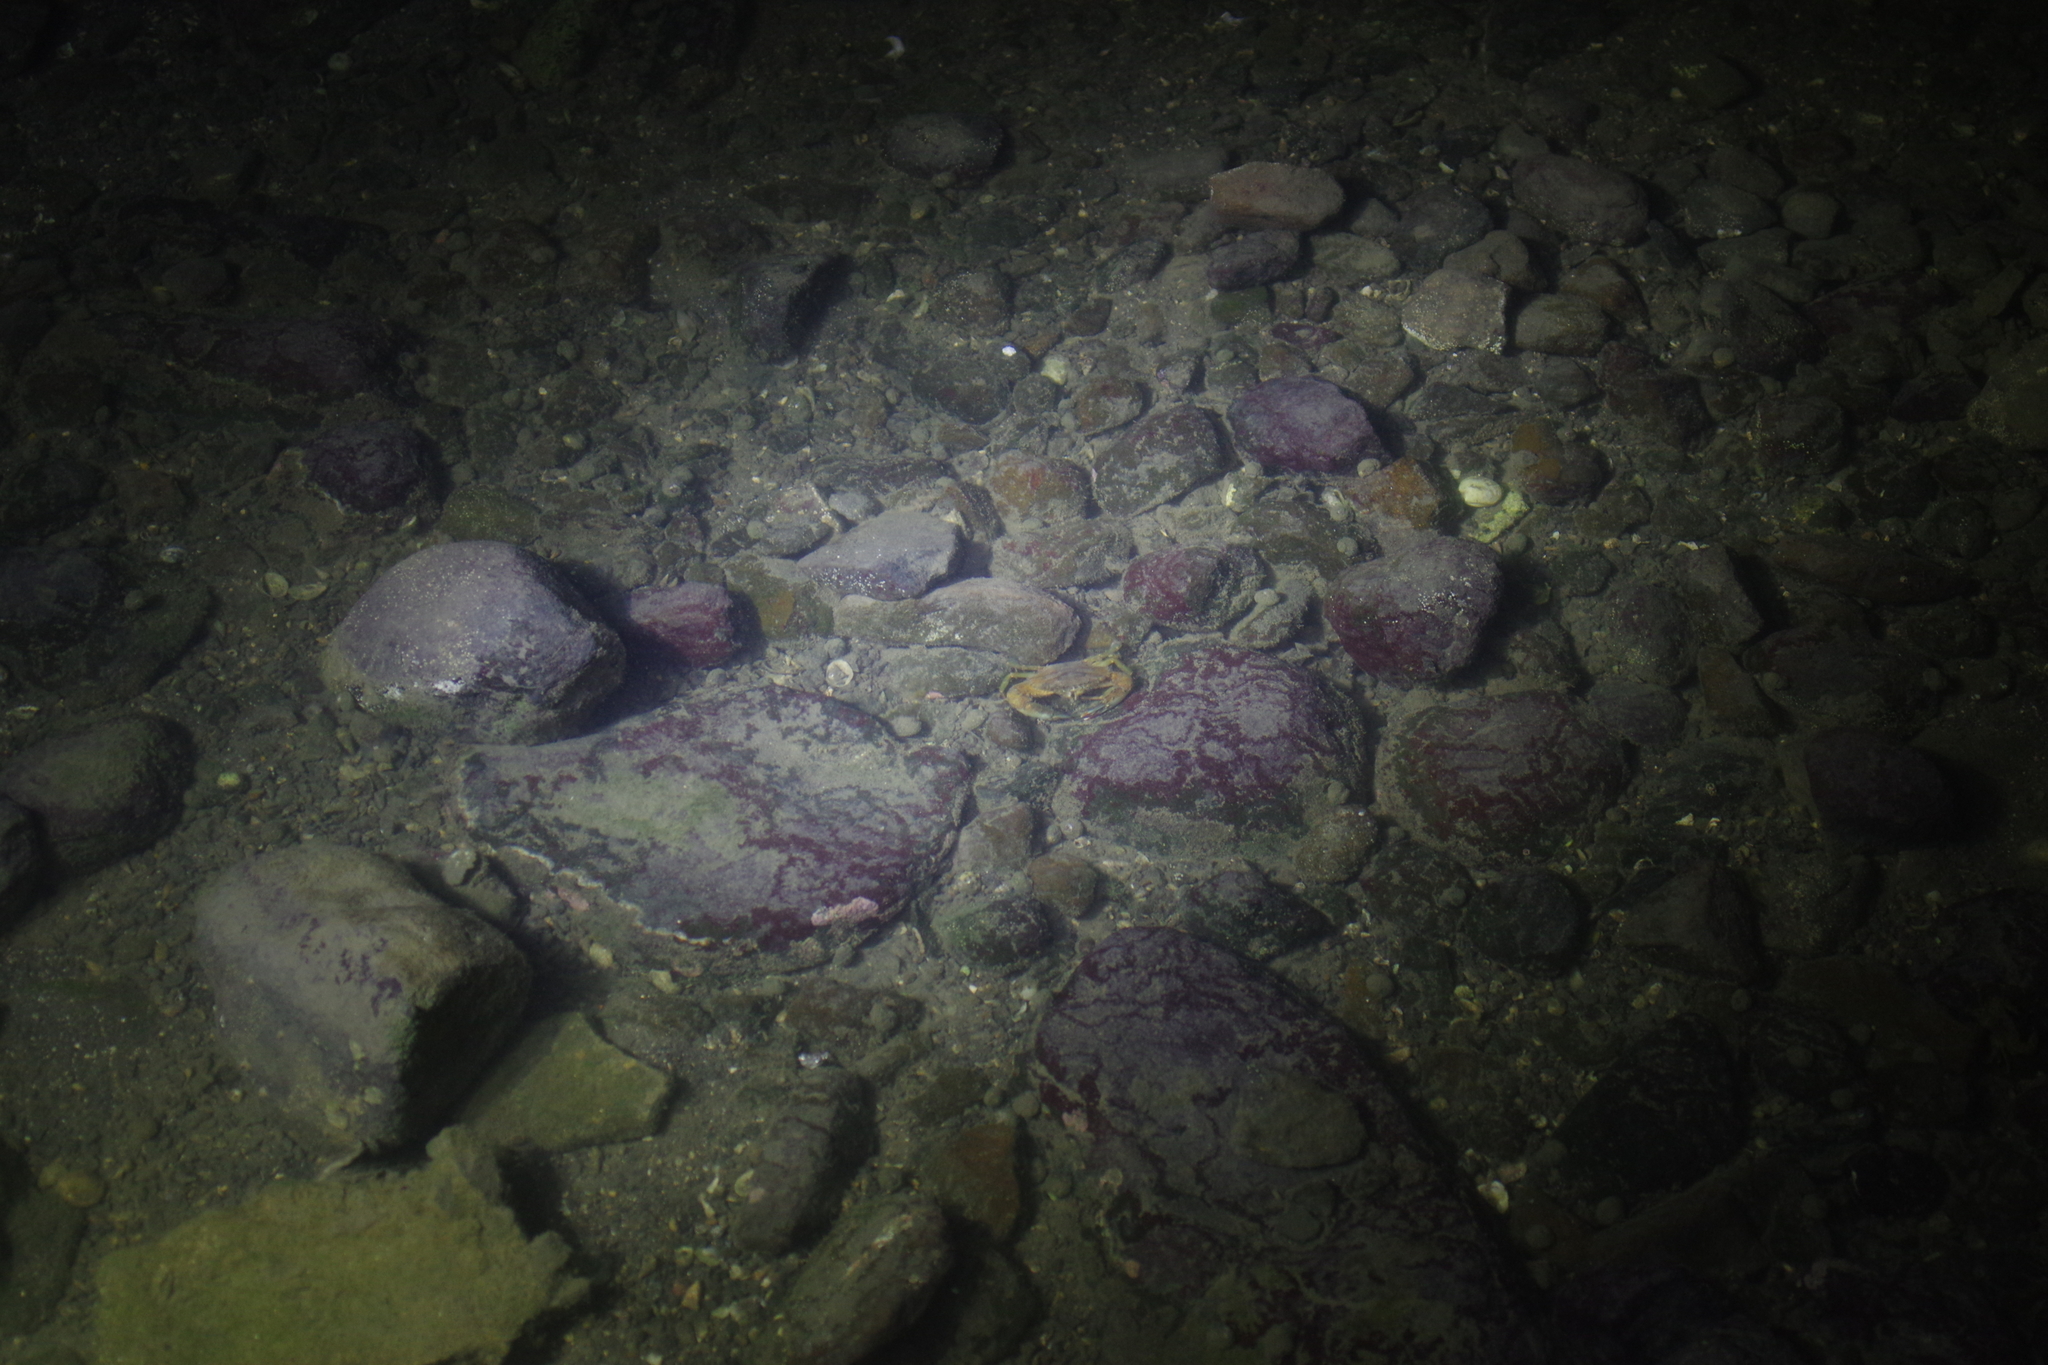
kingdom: Animalia
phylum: Arthropoda
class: Malacostraca
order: Decapoda
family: Portunidae
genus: Thalamita
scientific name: Thalamita crenata
